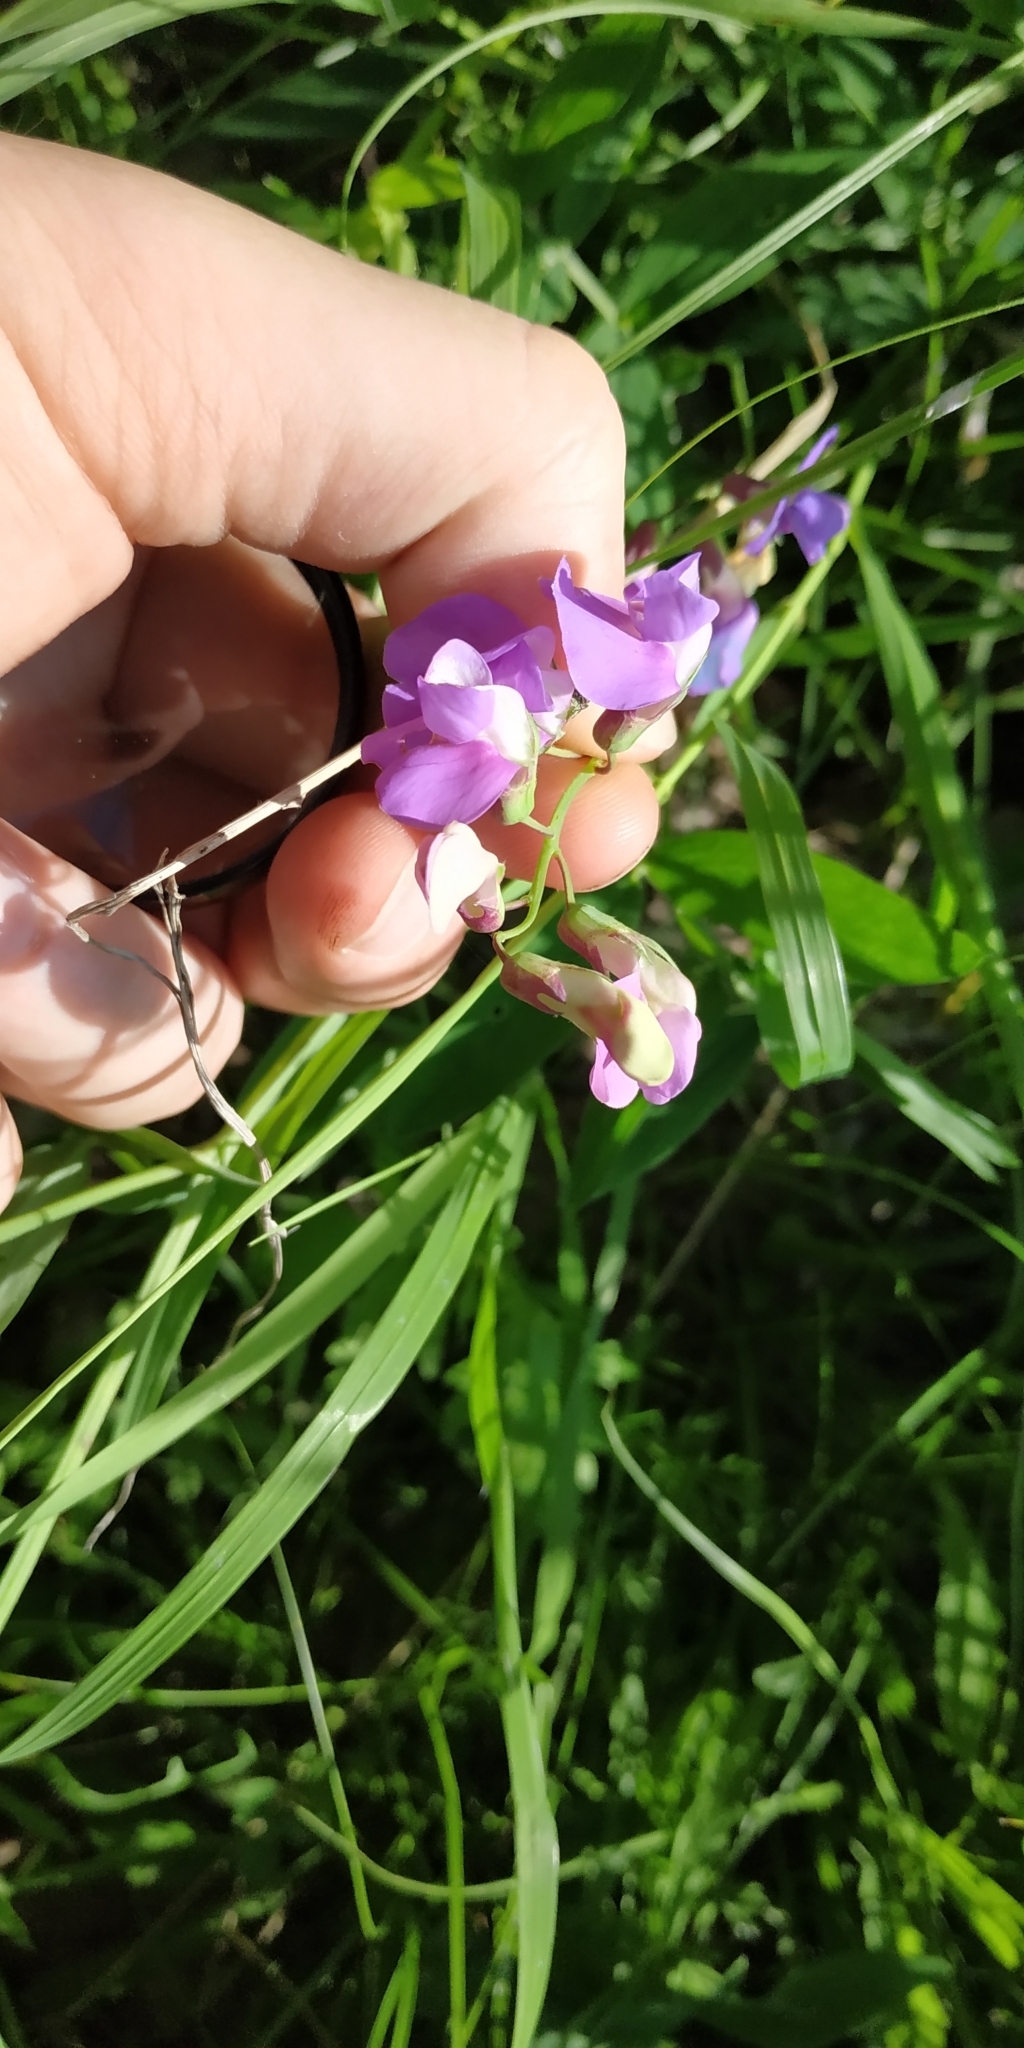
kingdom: Plantae
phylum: Tracheophyta
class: Magnoliopsida
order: Fabales
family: Fabaceae
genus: Lathyrus
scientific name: Lathyrus palustris
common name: Marsh pea
